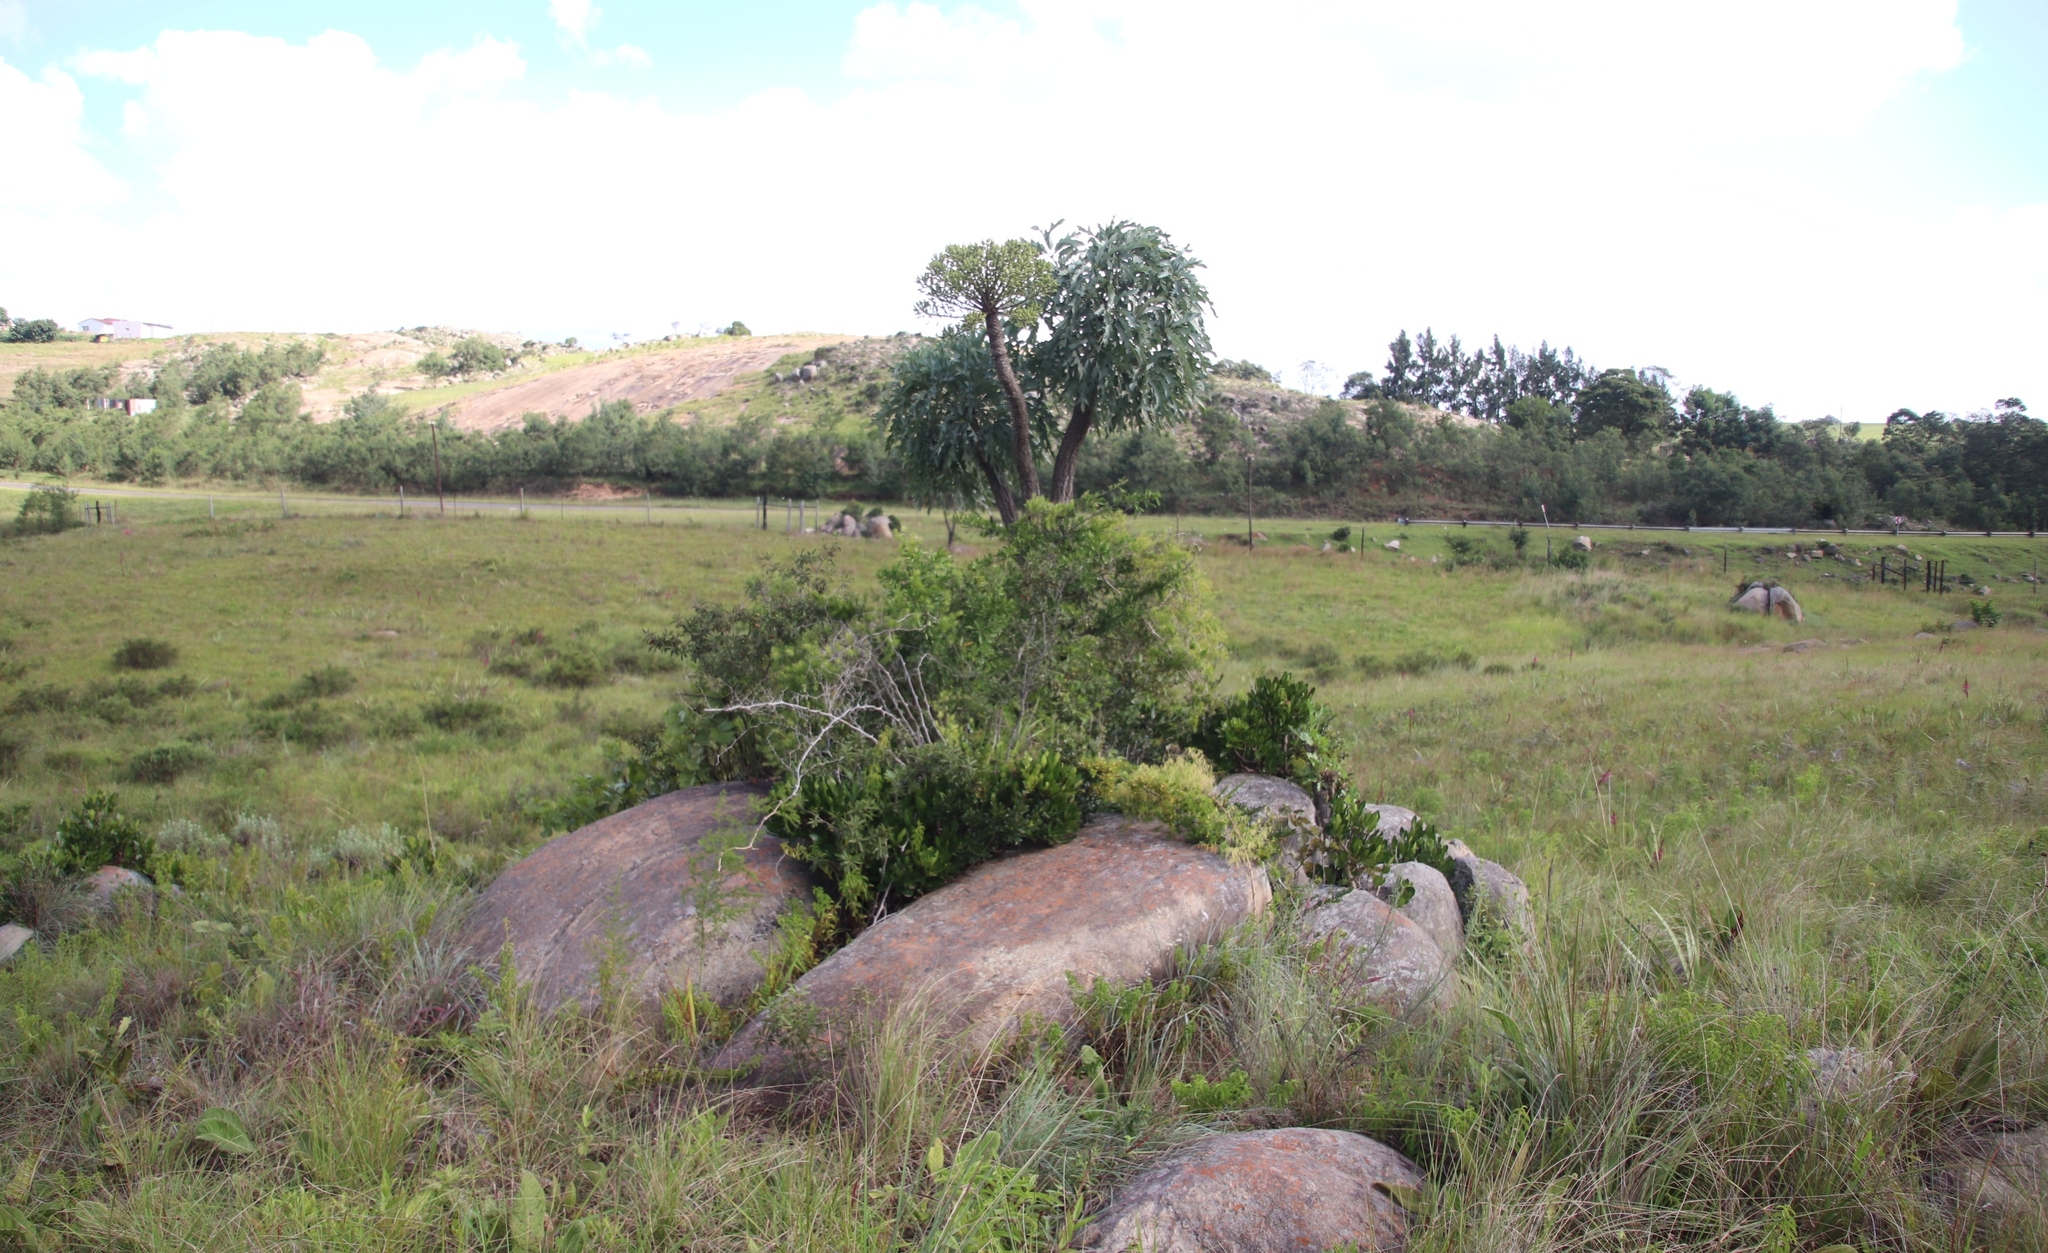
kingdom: Plantae
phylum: Tracheophyta
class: Magnoliopsida
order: Apiales
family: Araliaceae
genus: Cussonia
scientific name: Cussonia paniculata
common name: Cabbagetree
